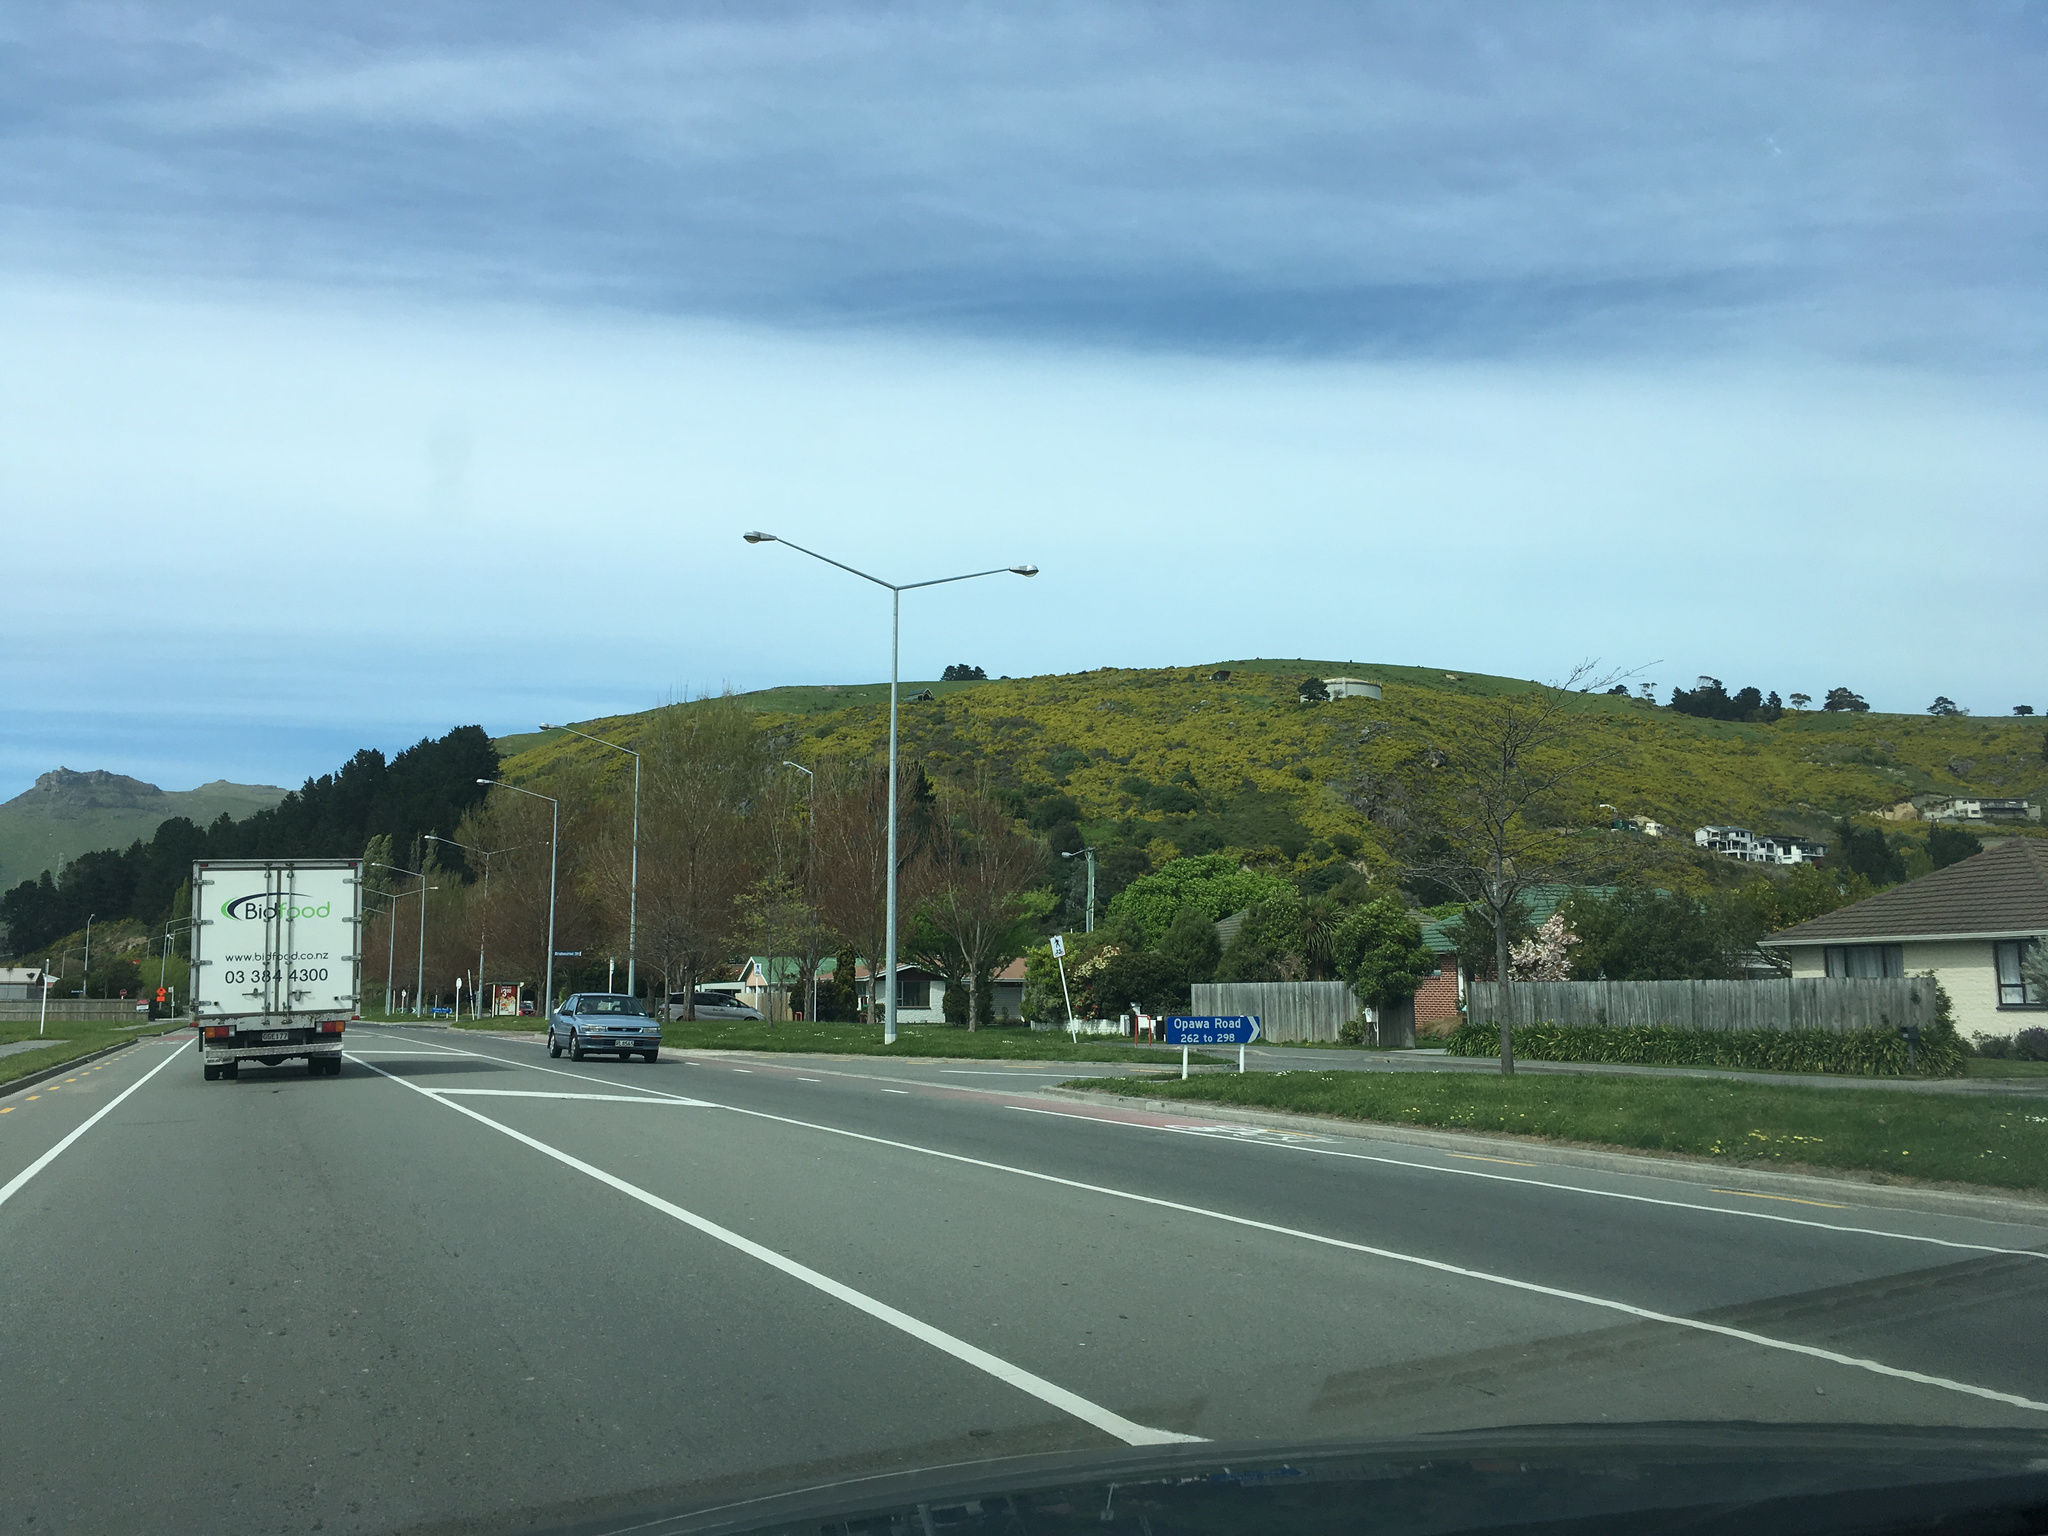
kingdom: Plantae
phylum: Tracheophyta
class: Magnoliopsida
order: Asterales
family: Asteraceae
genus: Osteospermum
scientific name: Osteospermum moniliferum
